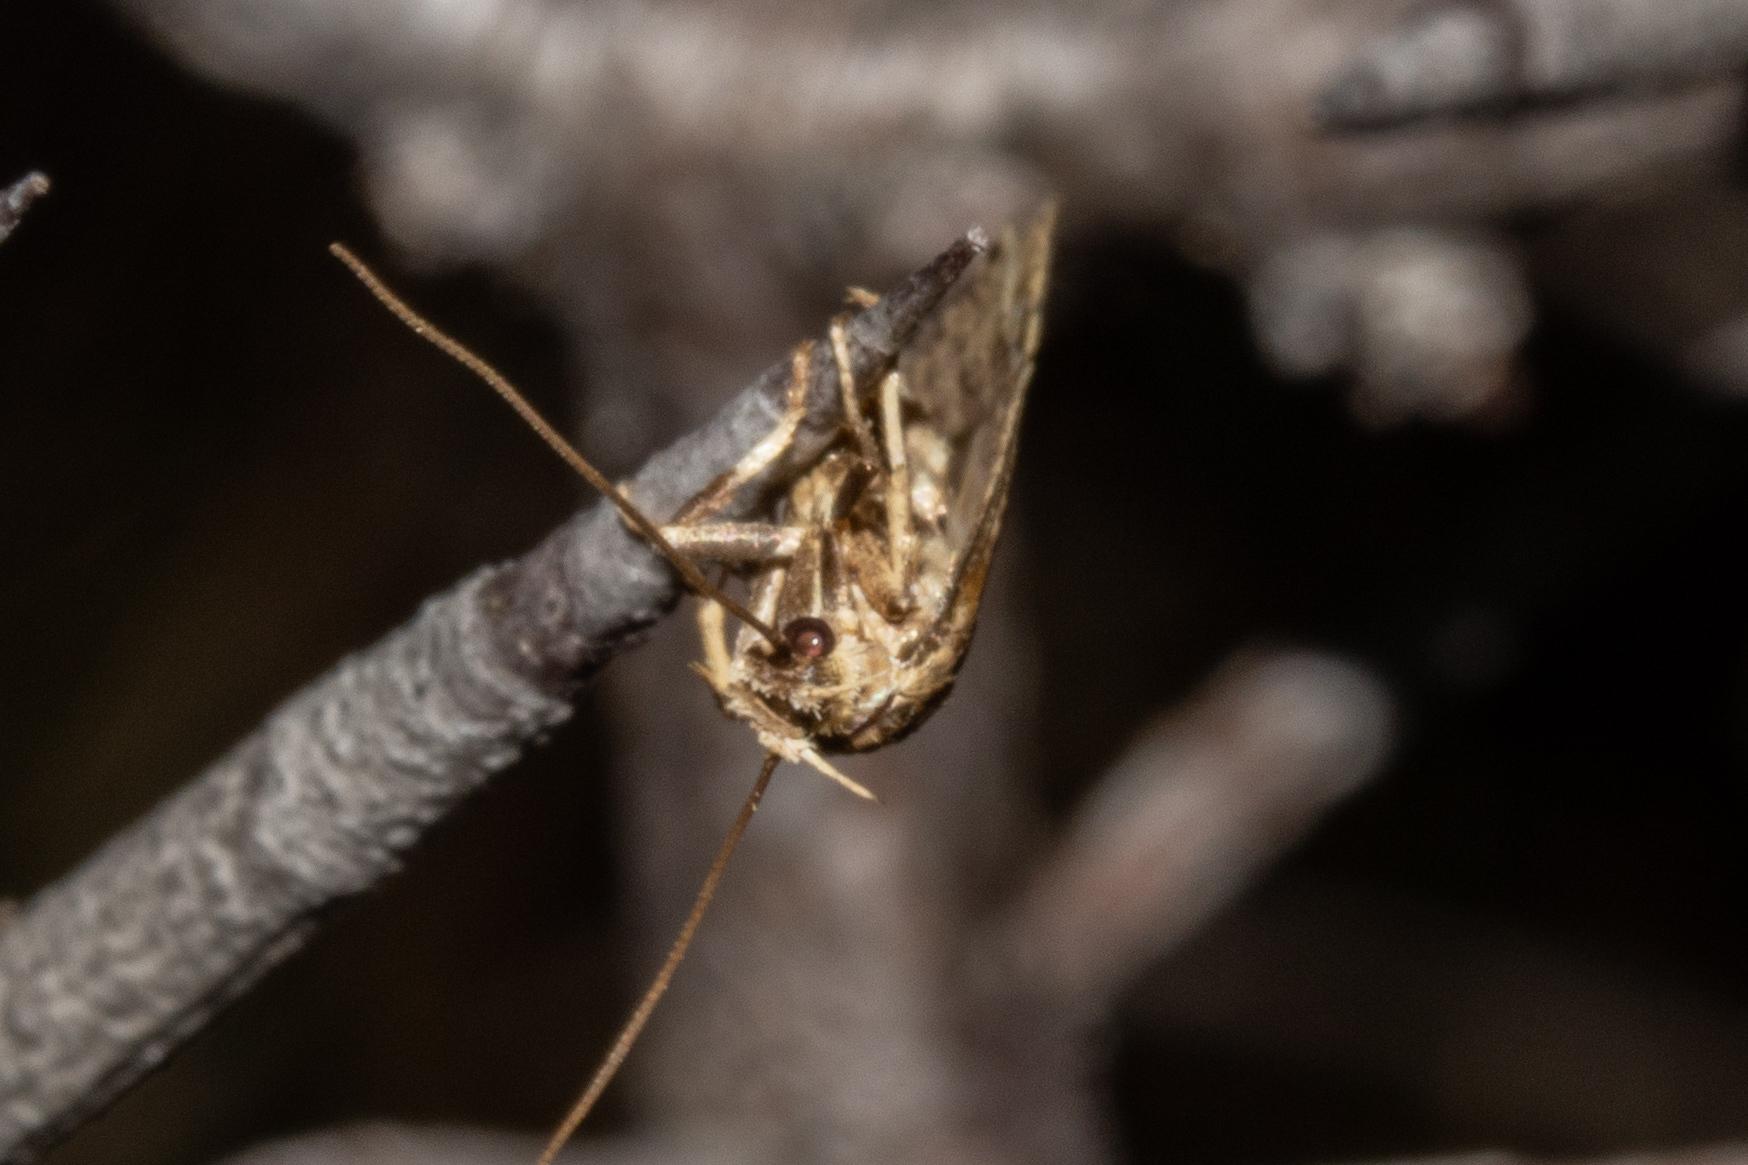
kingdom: Animalia
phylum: Arthropoda
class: Insecta
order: Lepidoptera
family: Depressariidae
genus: Agonopterix
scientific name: Agonopterix
